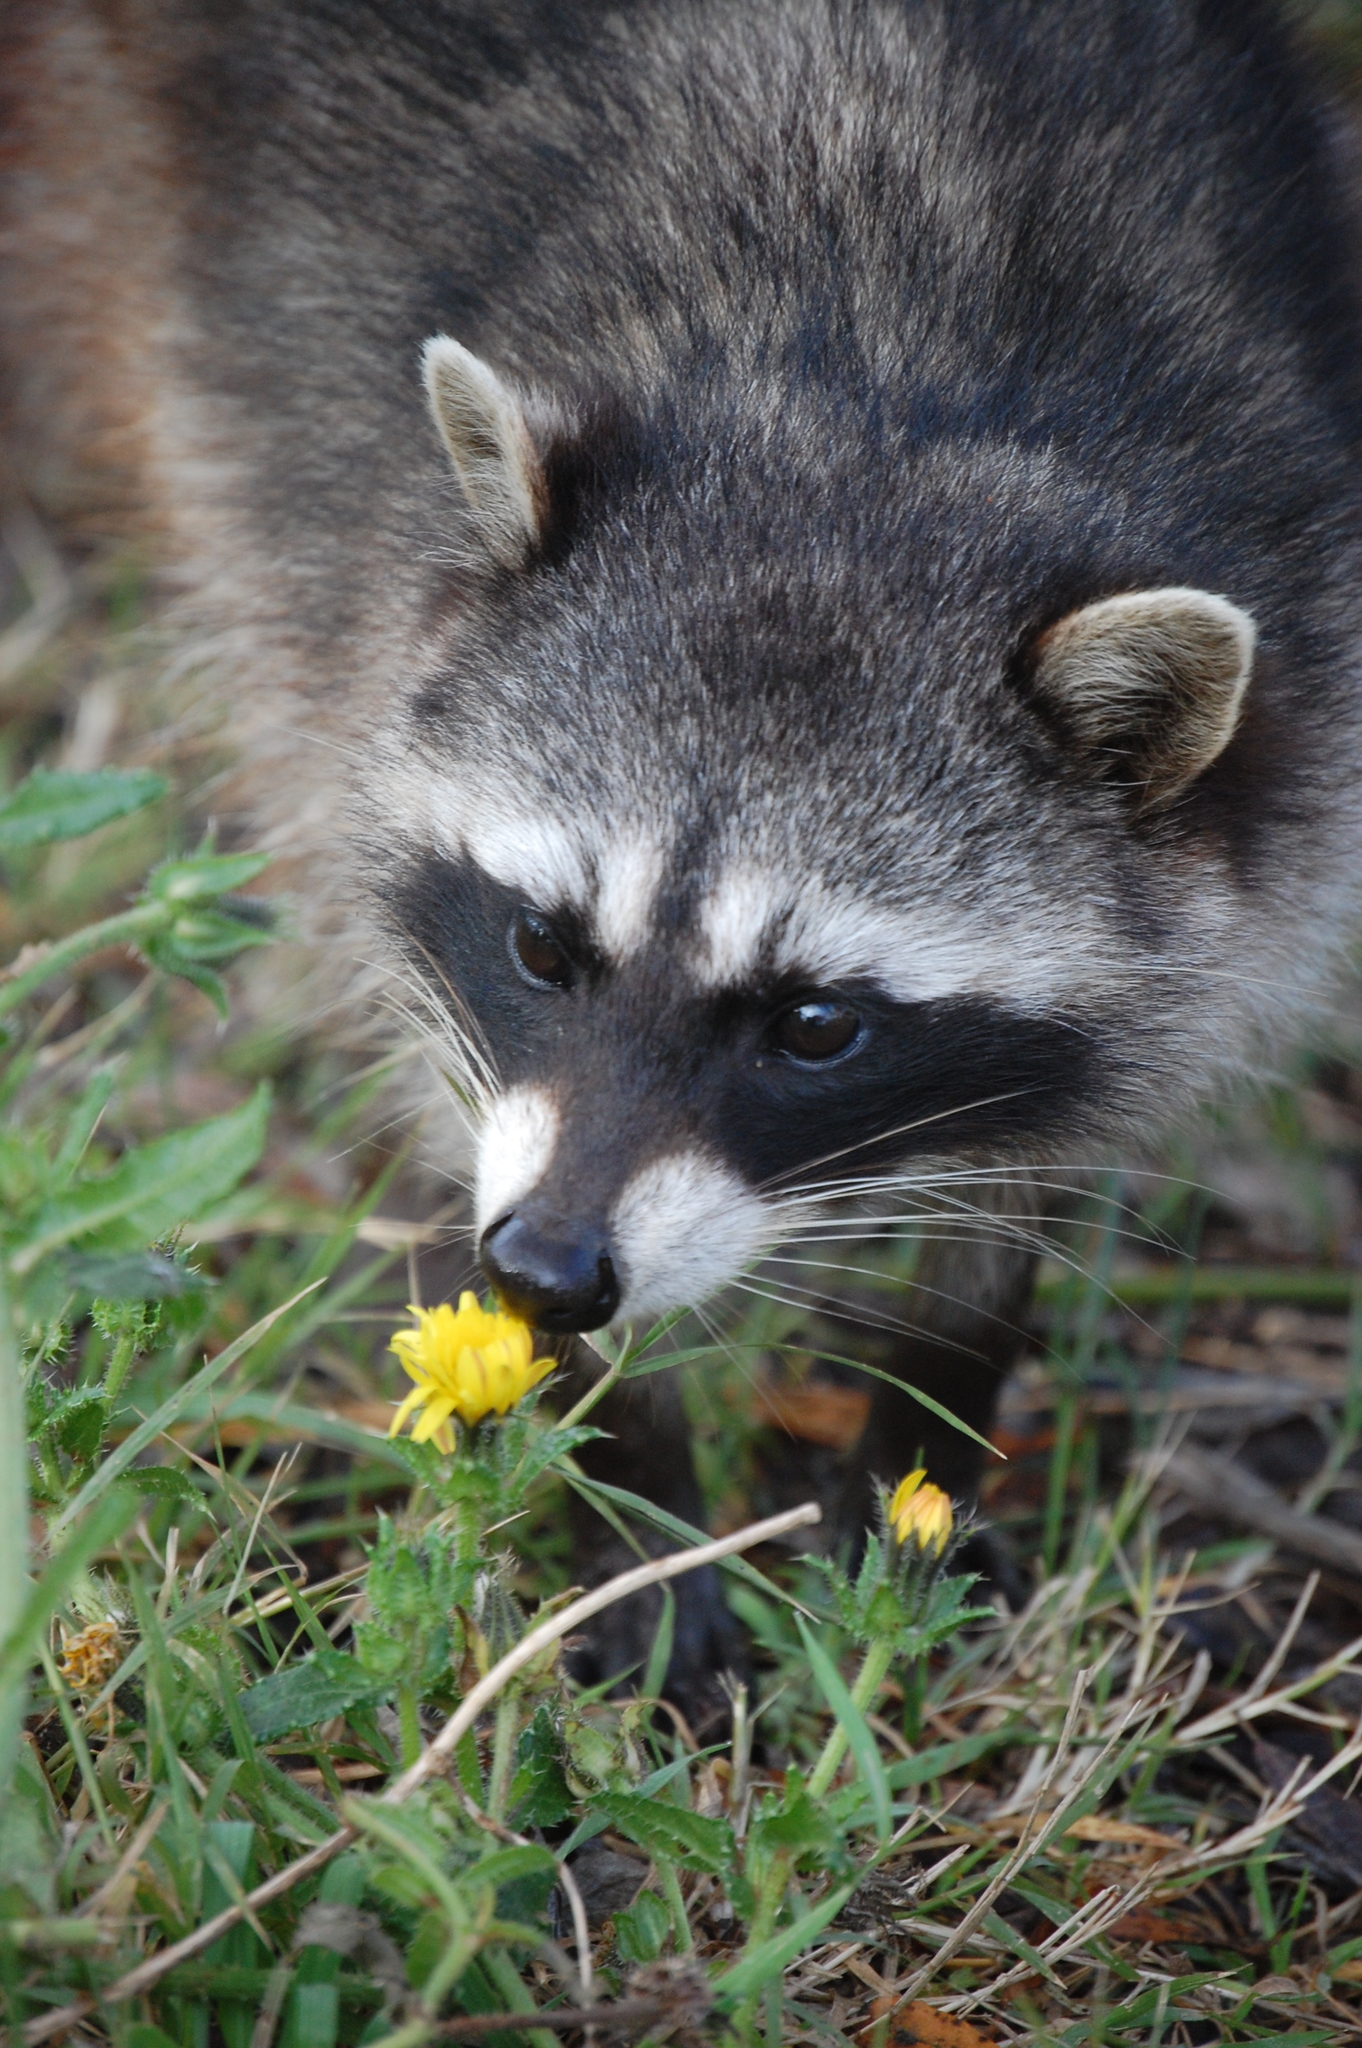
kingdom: Animalia
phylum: Chordata
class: Mammalia
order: Carnivora
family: Procyonidae
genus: Procyon
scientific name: Procyon lotor
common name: Raccoon
